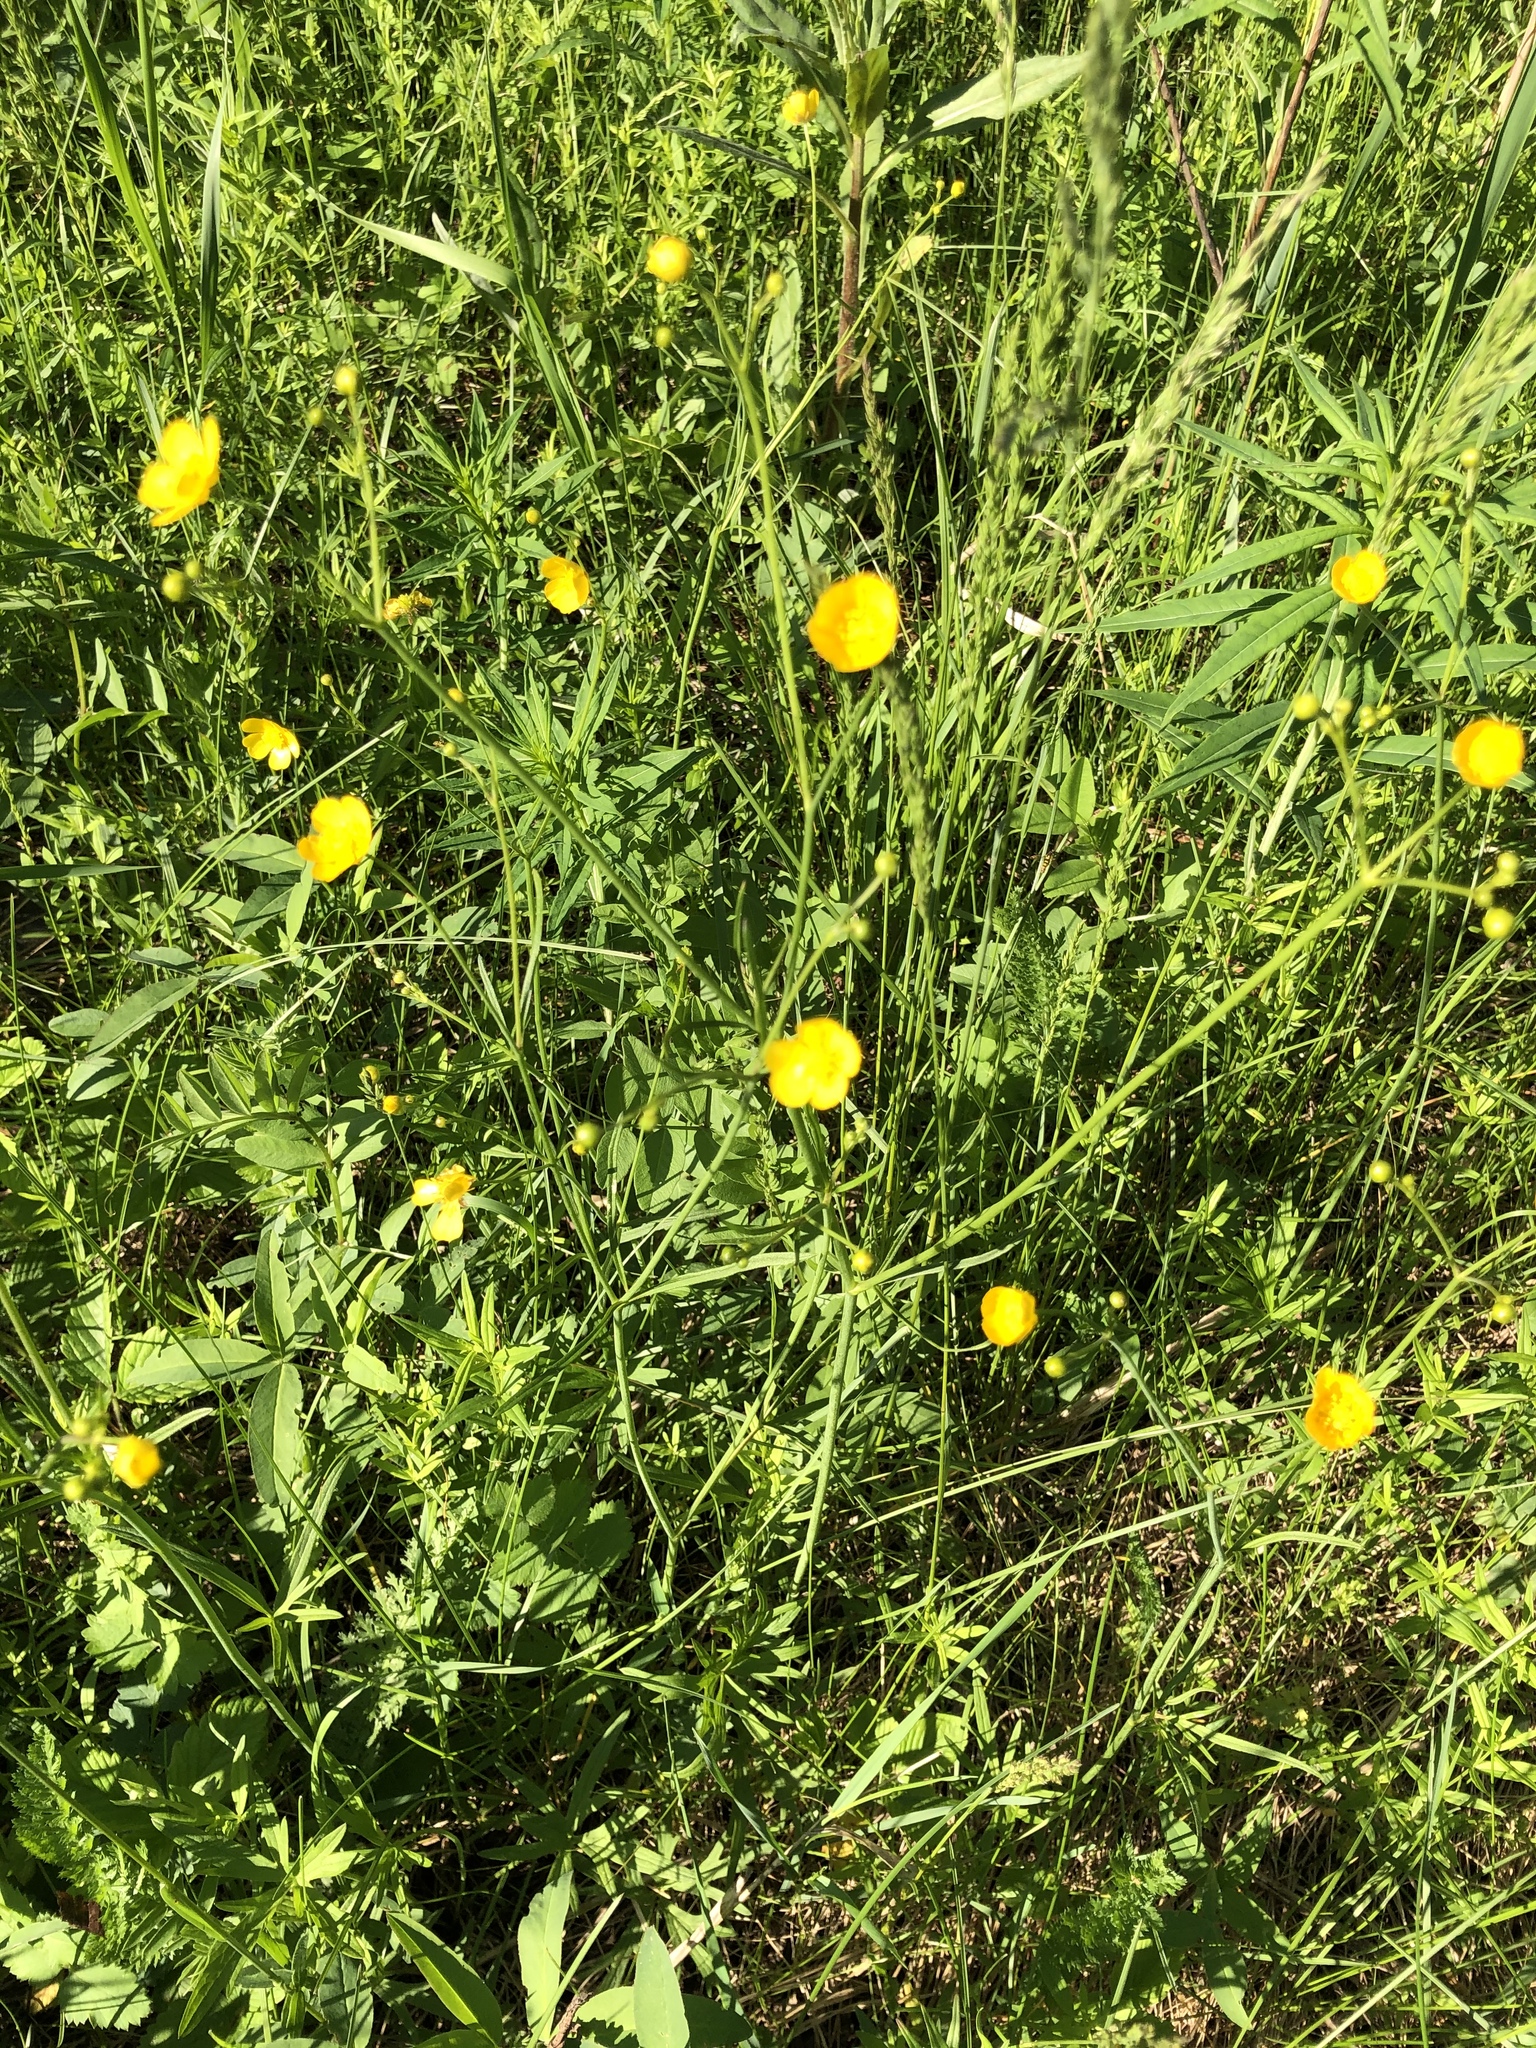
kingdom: Plantae
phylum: Tracheophyta
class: Magnoliopsida
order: Ranunculales
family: Ranunculaceae
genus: Ranunculus
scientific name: Ranunculus acris
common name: Meadow buttercup
